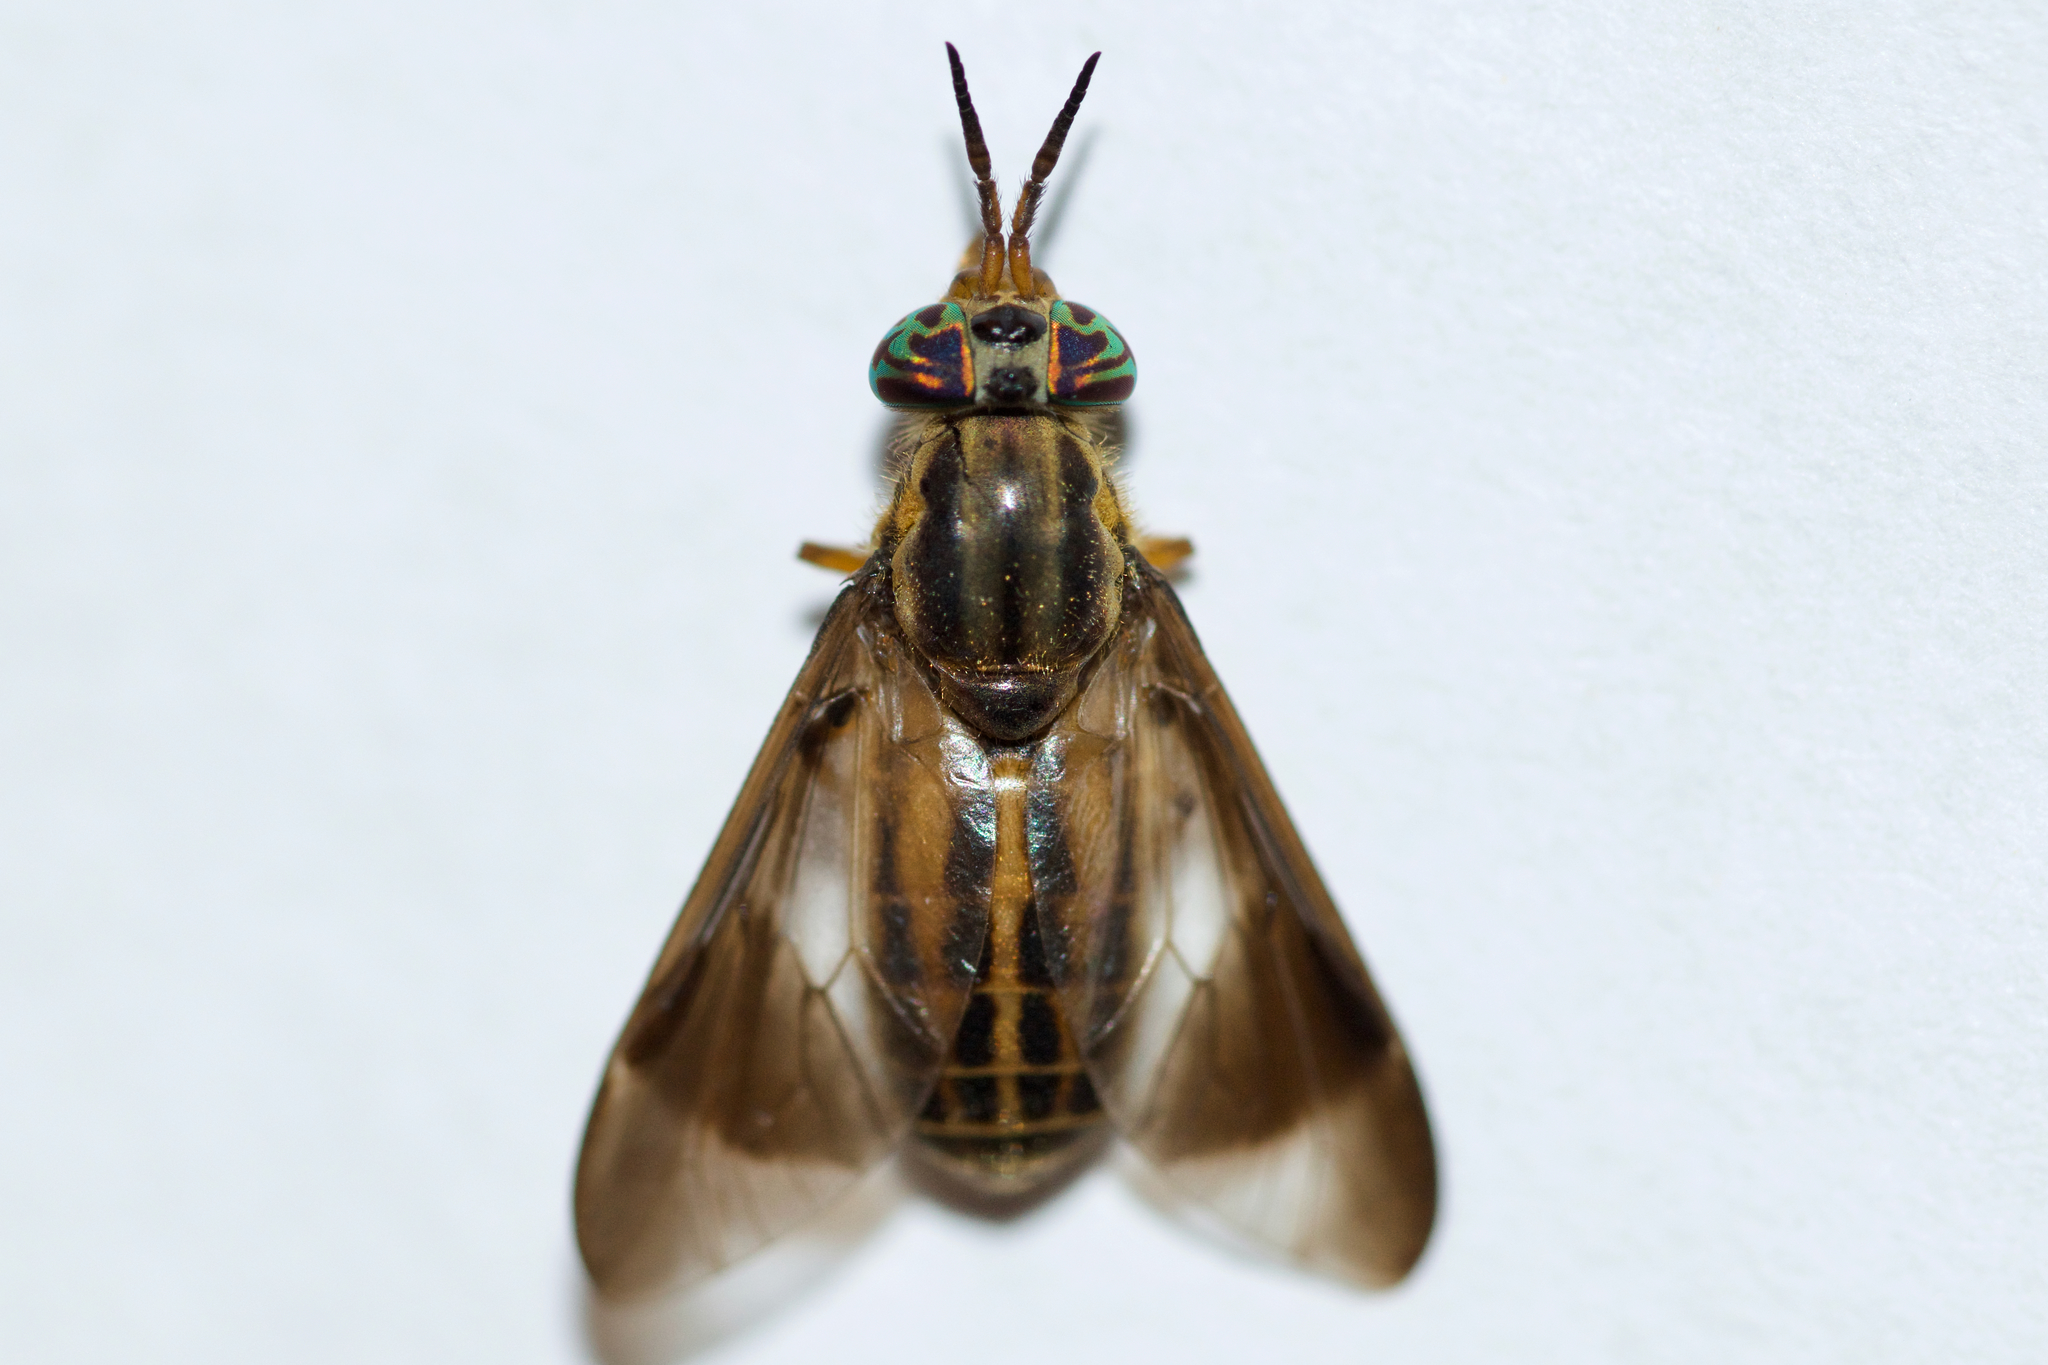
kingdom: Animalia
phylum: Arthropoda
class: Insecta
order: Diptera
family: Tabanidae
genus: Chrysops
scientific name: Chrysops aberrans
